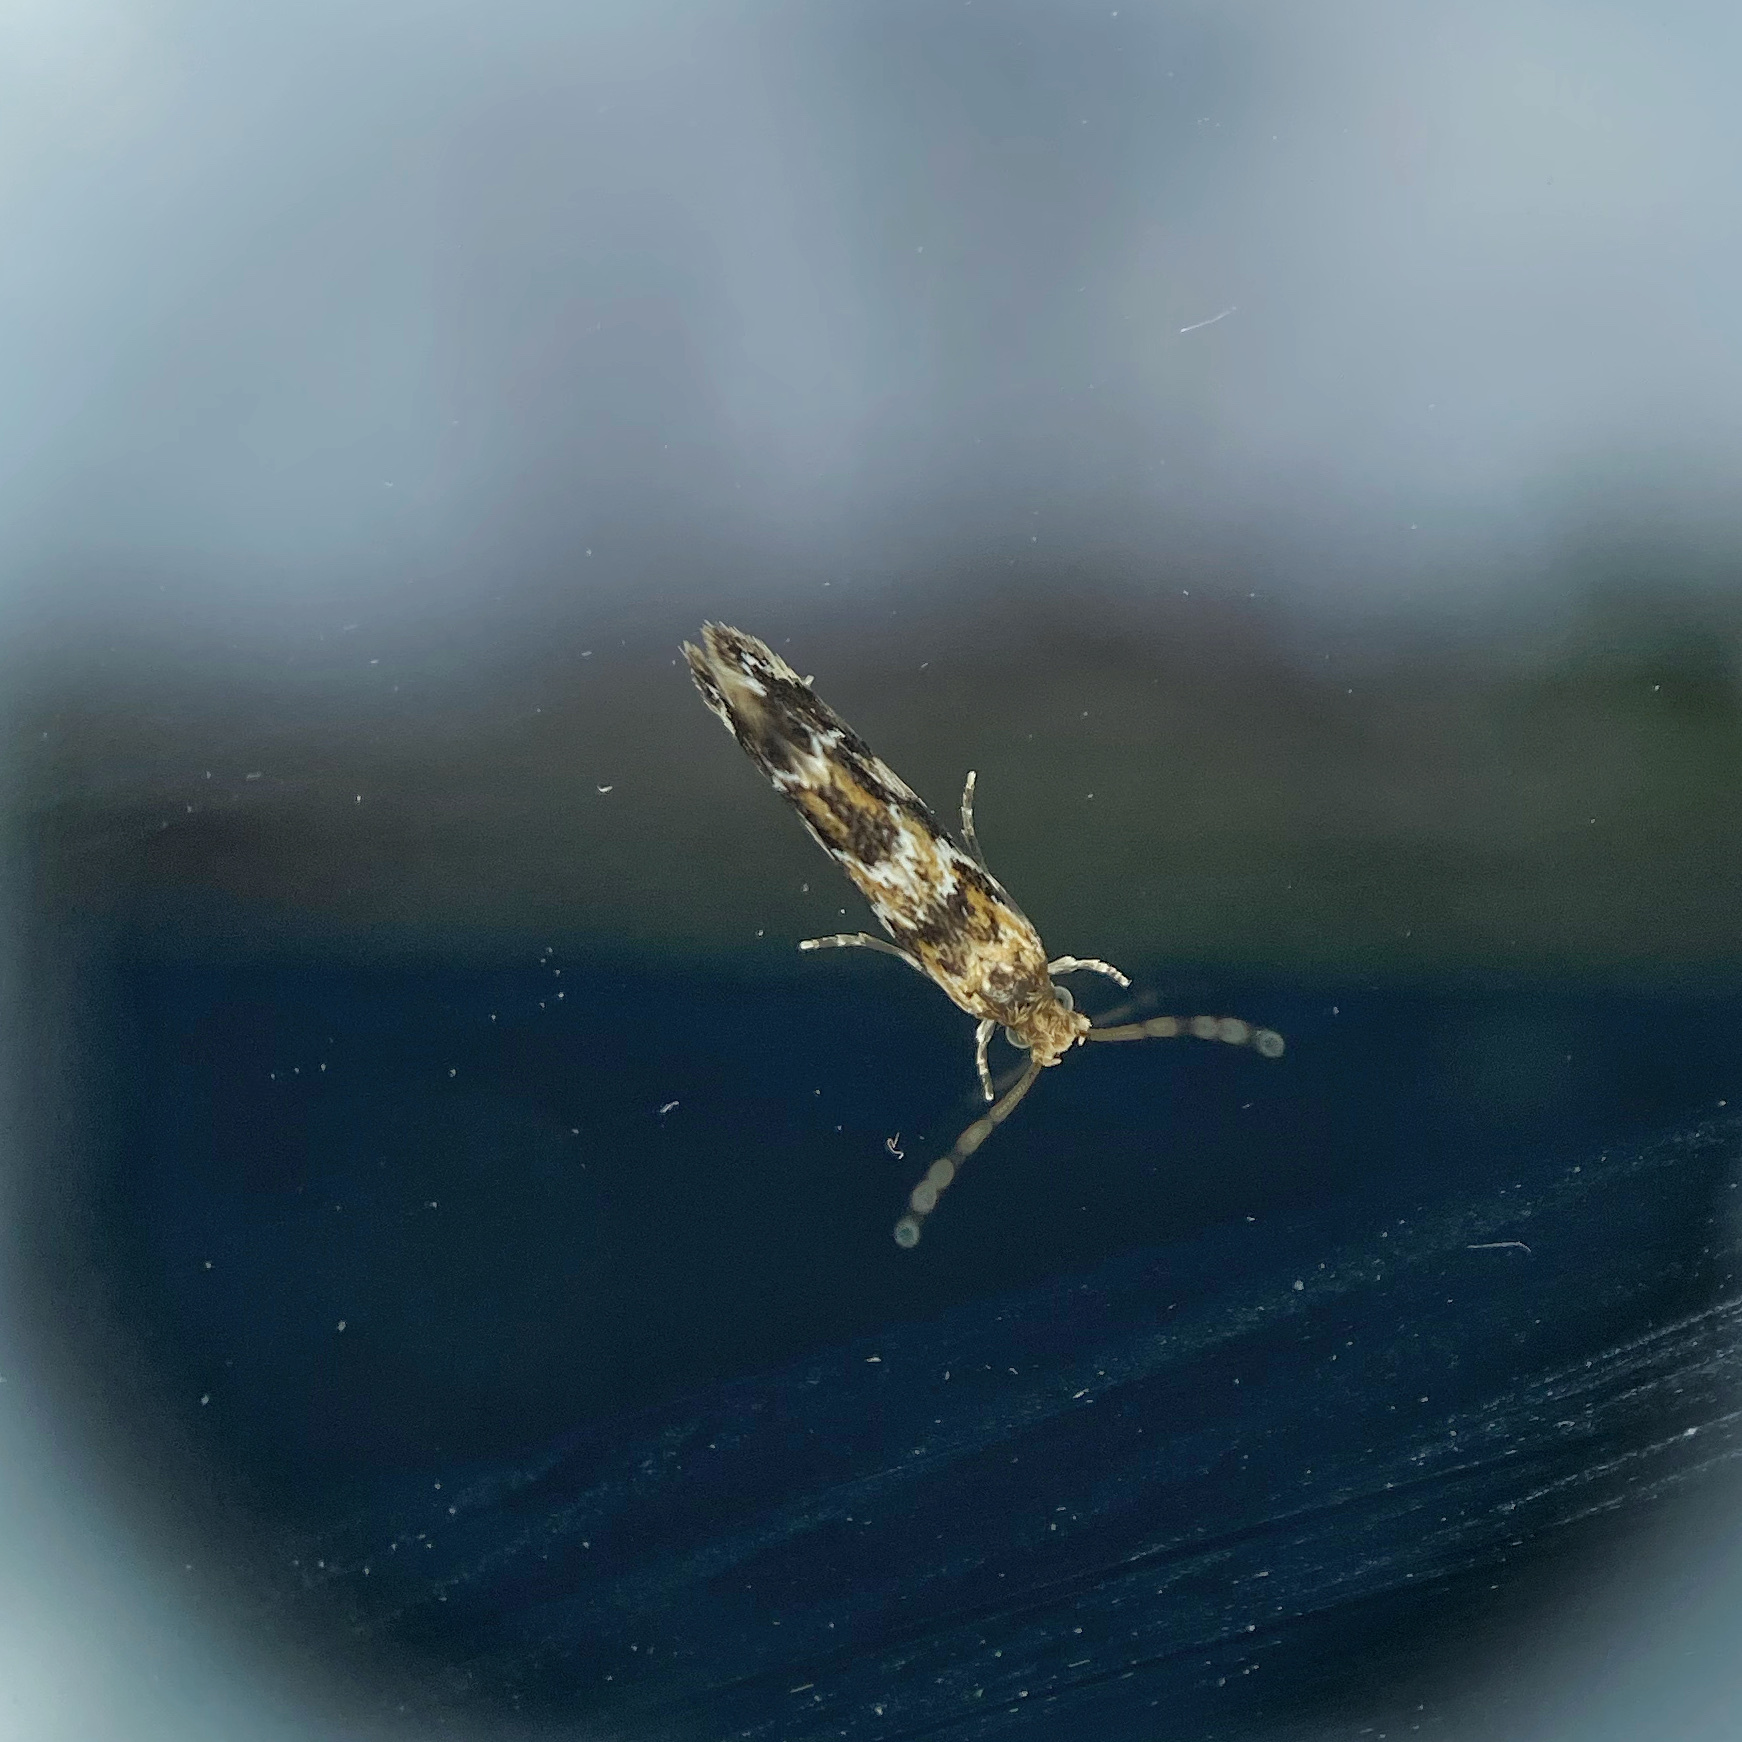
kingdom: Animalia
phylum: Arthropoda
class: Insecta
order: Lepidoptera
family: Dryadaulidae
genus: Dryadaula
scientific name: Dryadaula pactolia
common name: Cellar clothes
